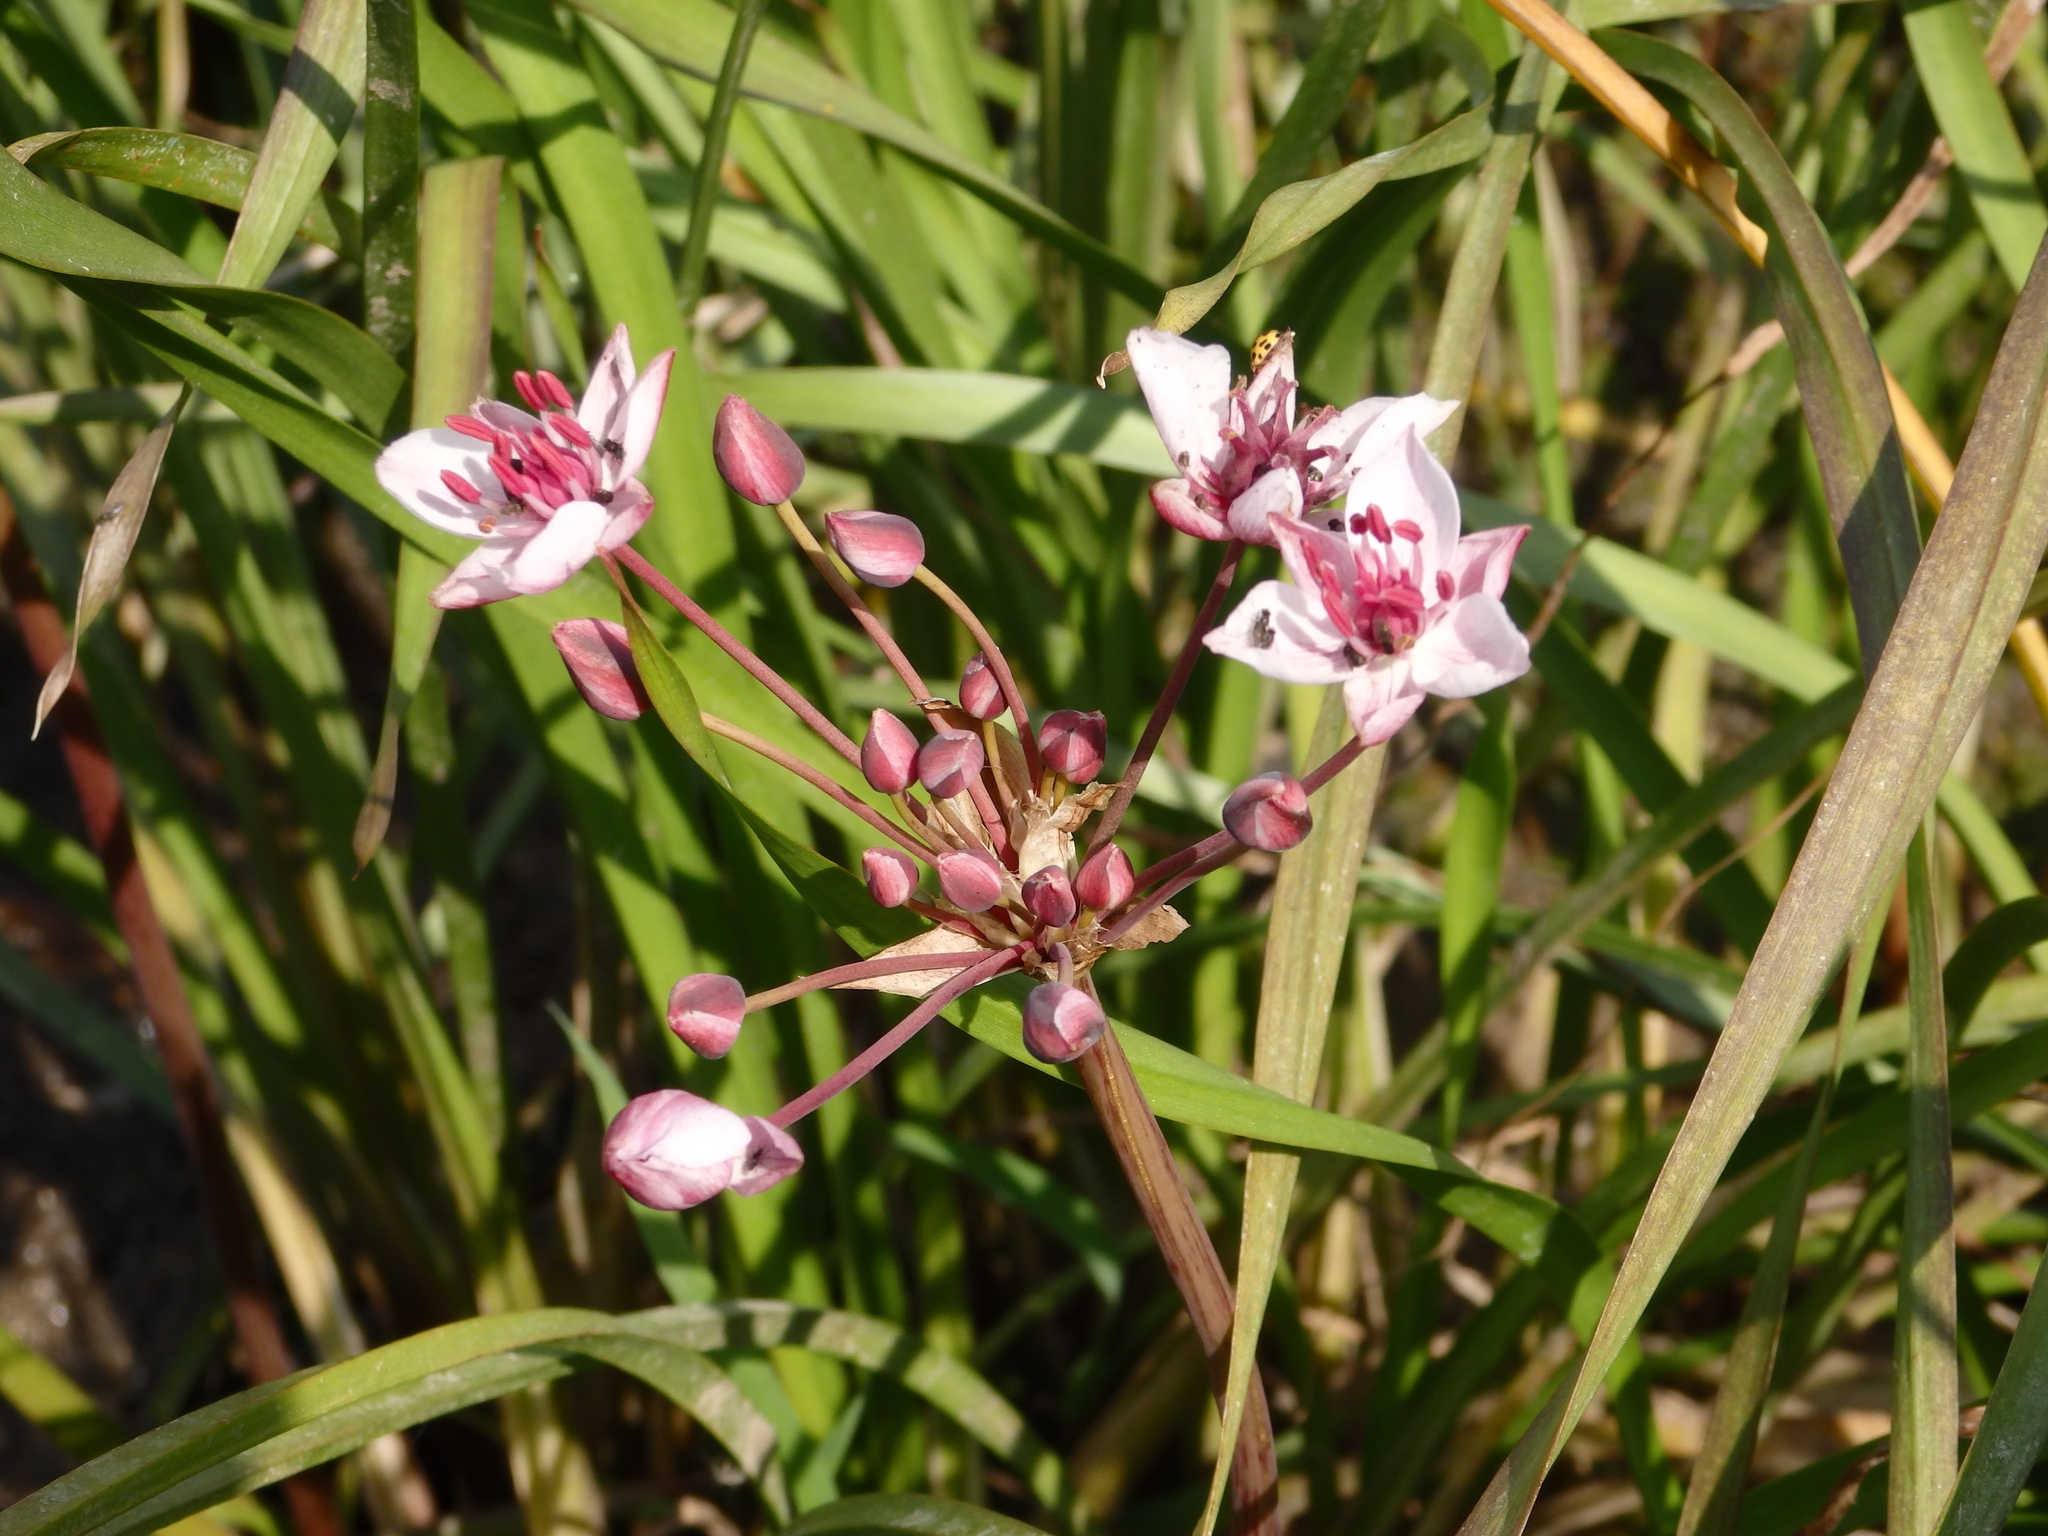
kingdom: Plantae
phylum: Tracheophyta
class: Liliopsida
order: Alismatales
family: Butomaceae
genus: Butomus
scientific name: Butomus umbellatus
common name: Flowering-rush
